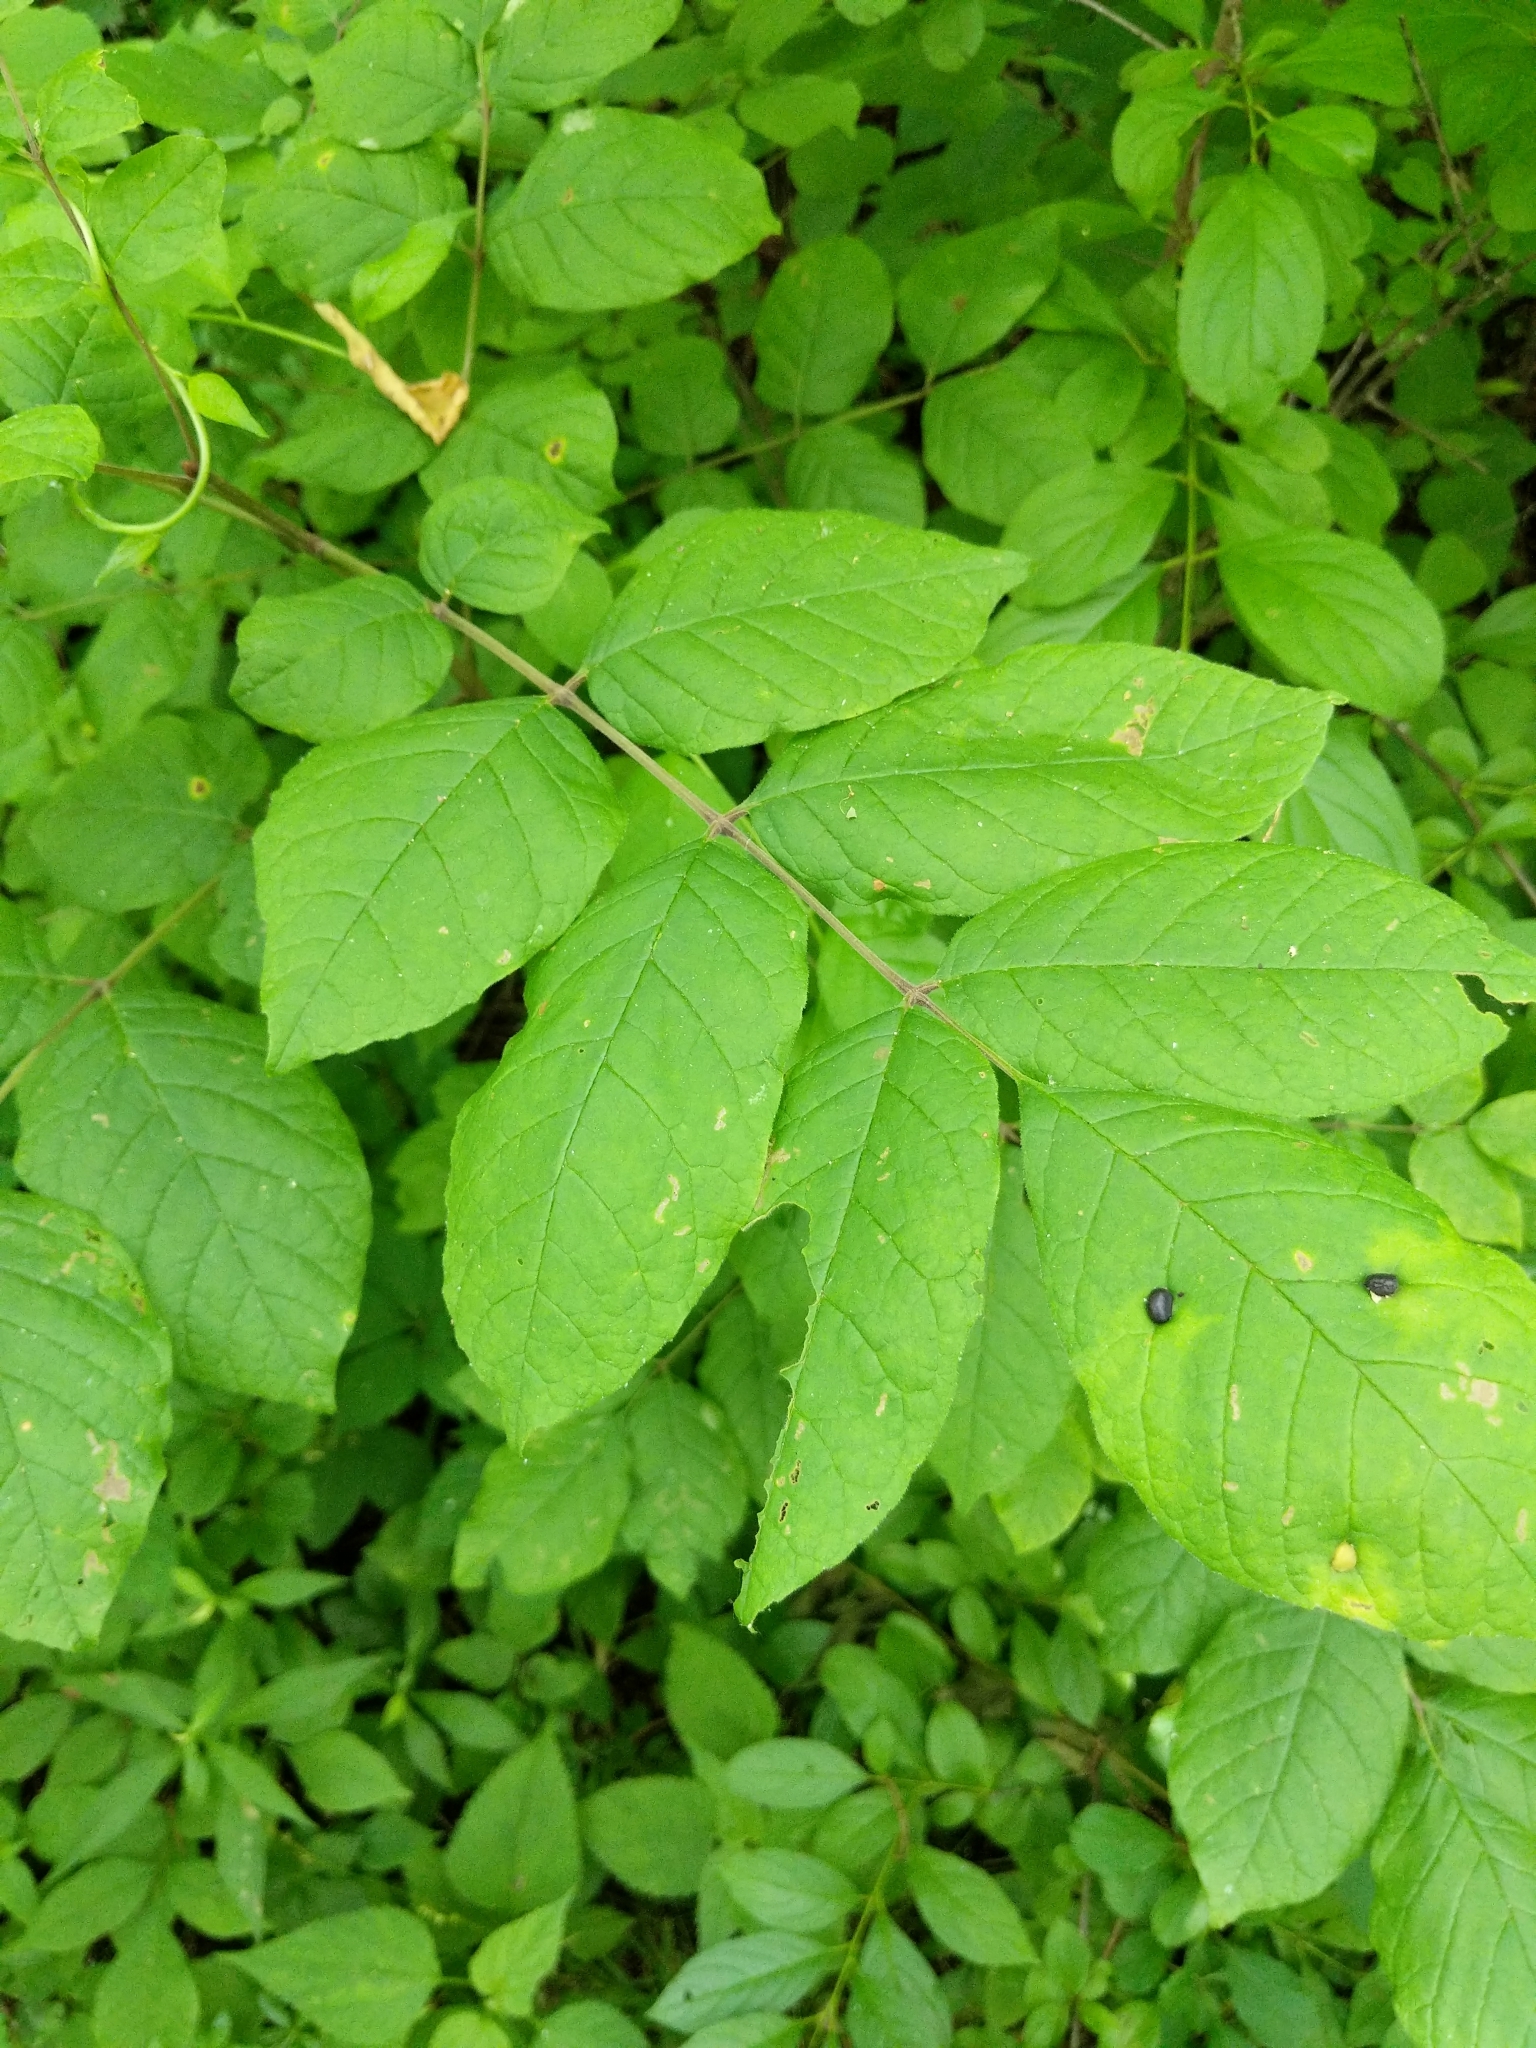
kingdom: Plantae
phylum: Tracheophyta
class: Magnoliopsida
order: Lamiales
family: Oleaceae
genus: Fraxinus
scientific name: Fraxinus quadrangulata
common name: Blue ash
